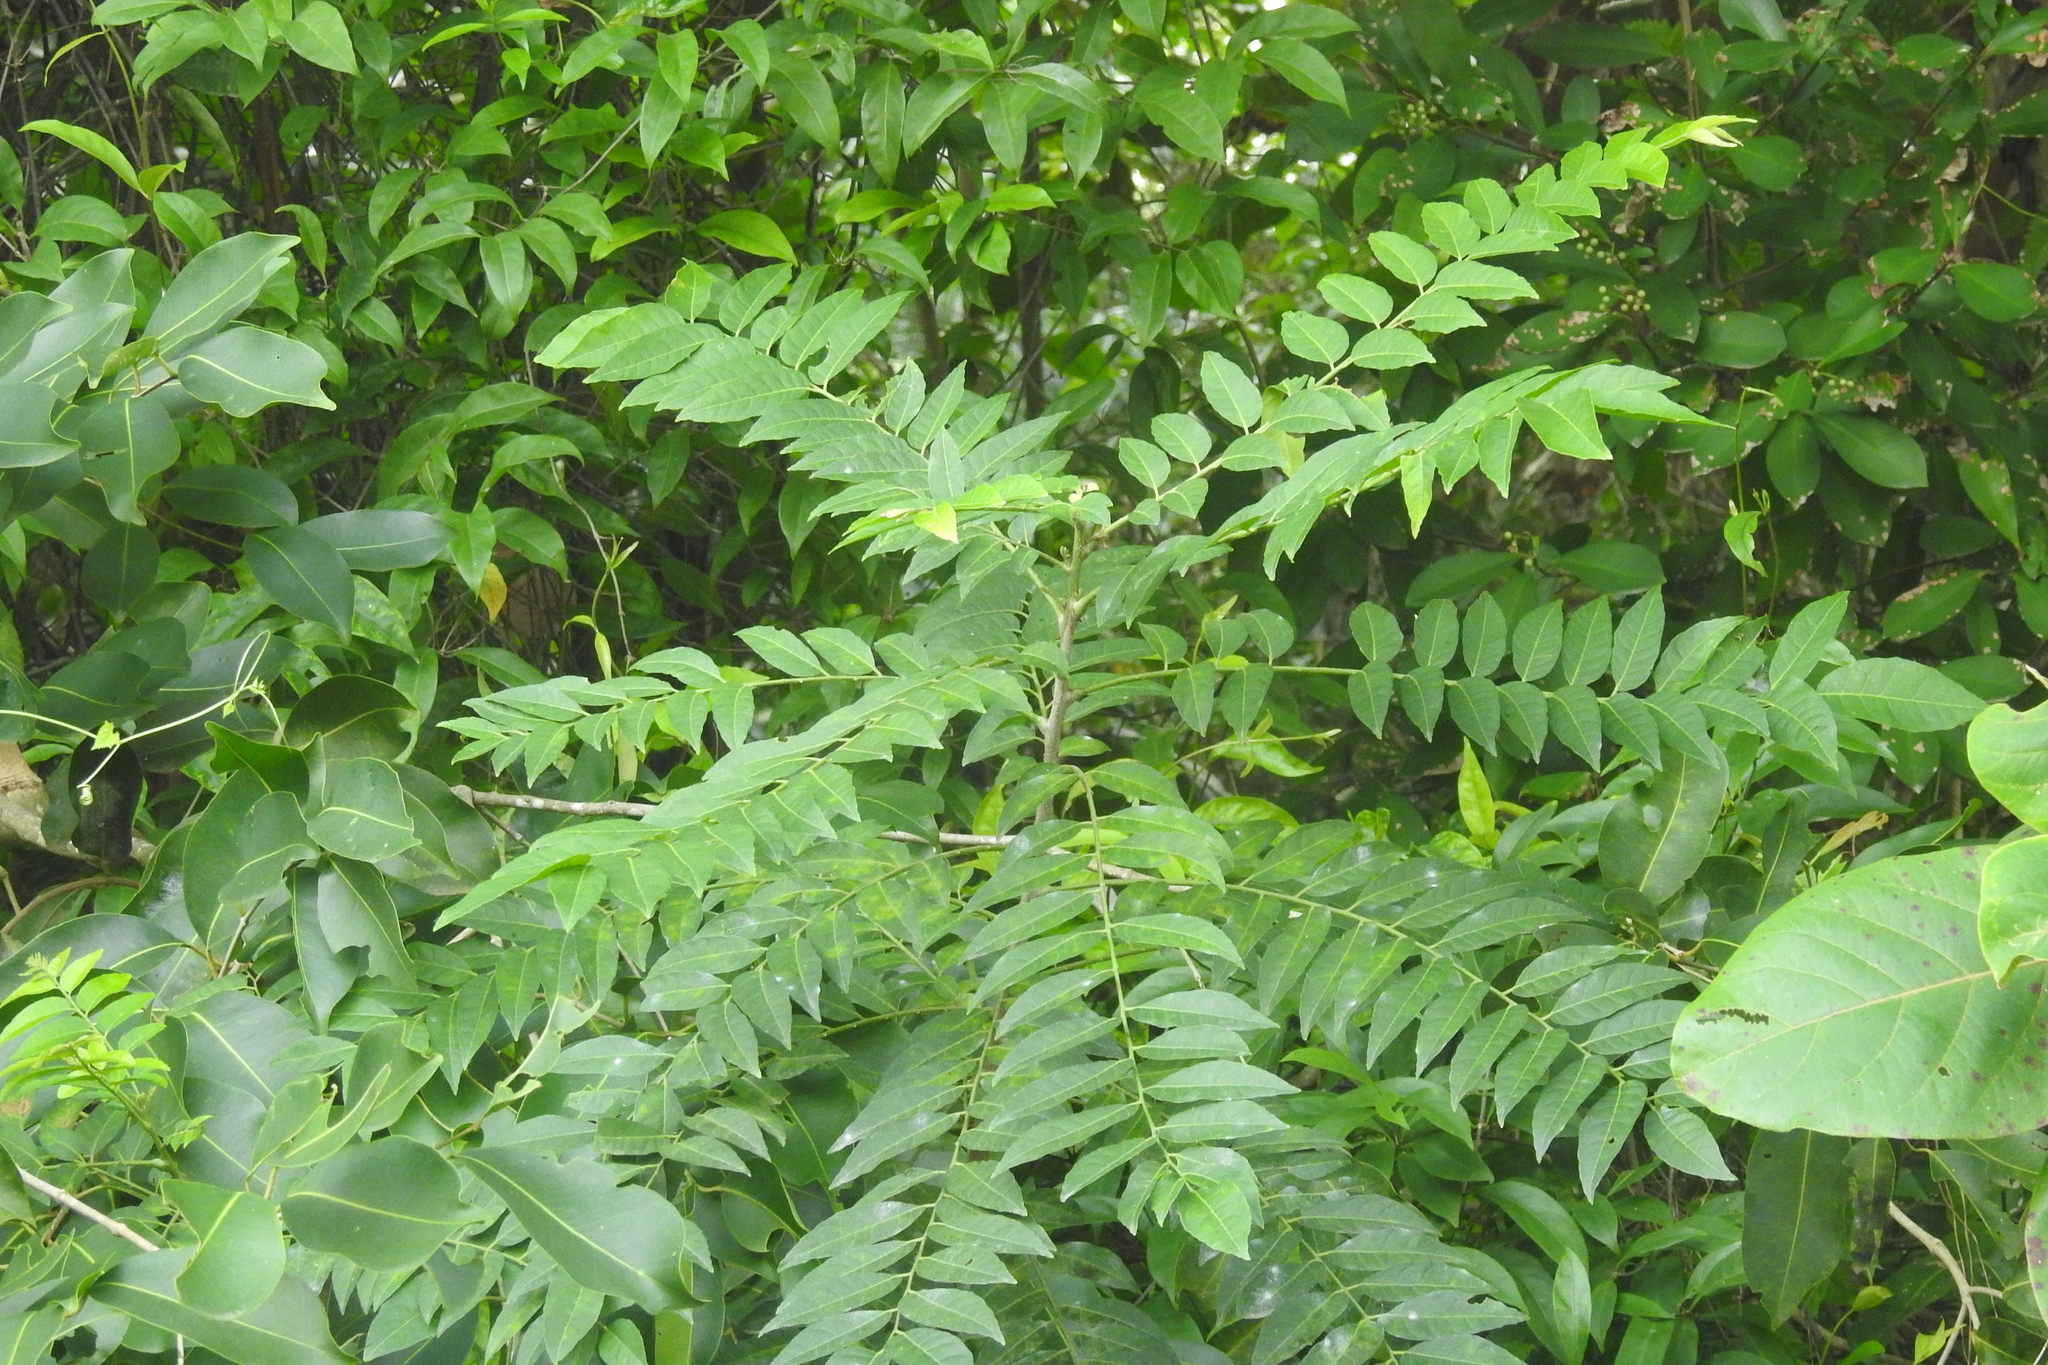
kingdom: Plantae
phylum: Tracheophyta
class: Magnoliopsida
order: Sapindales
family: Rutaceae
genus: Clausena
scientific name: Clausena excavata
